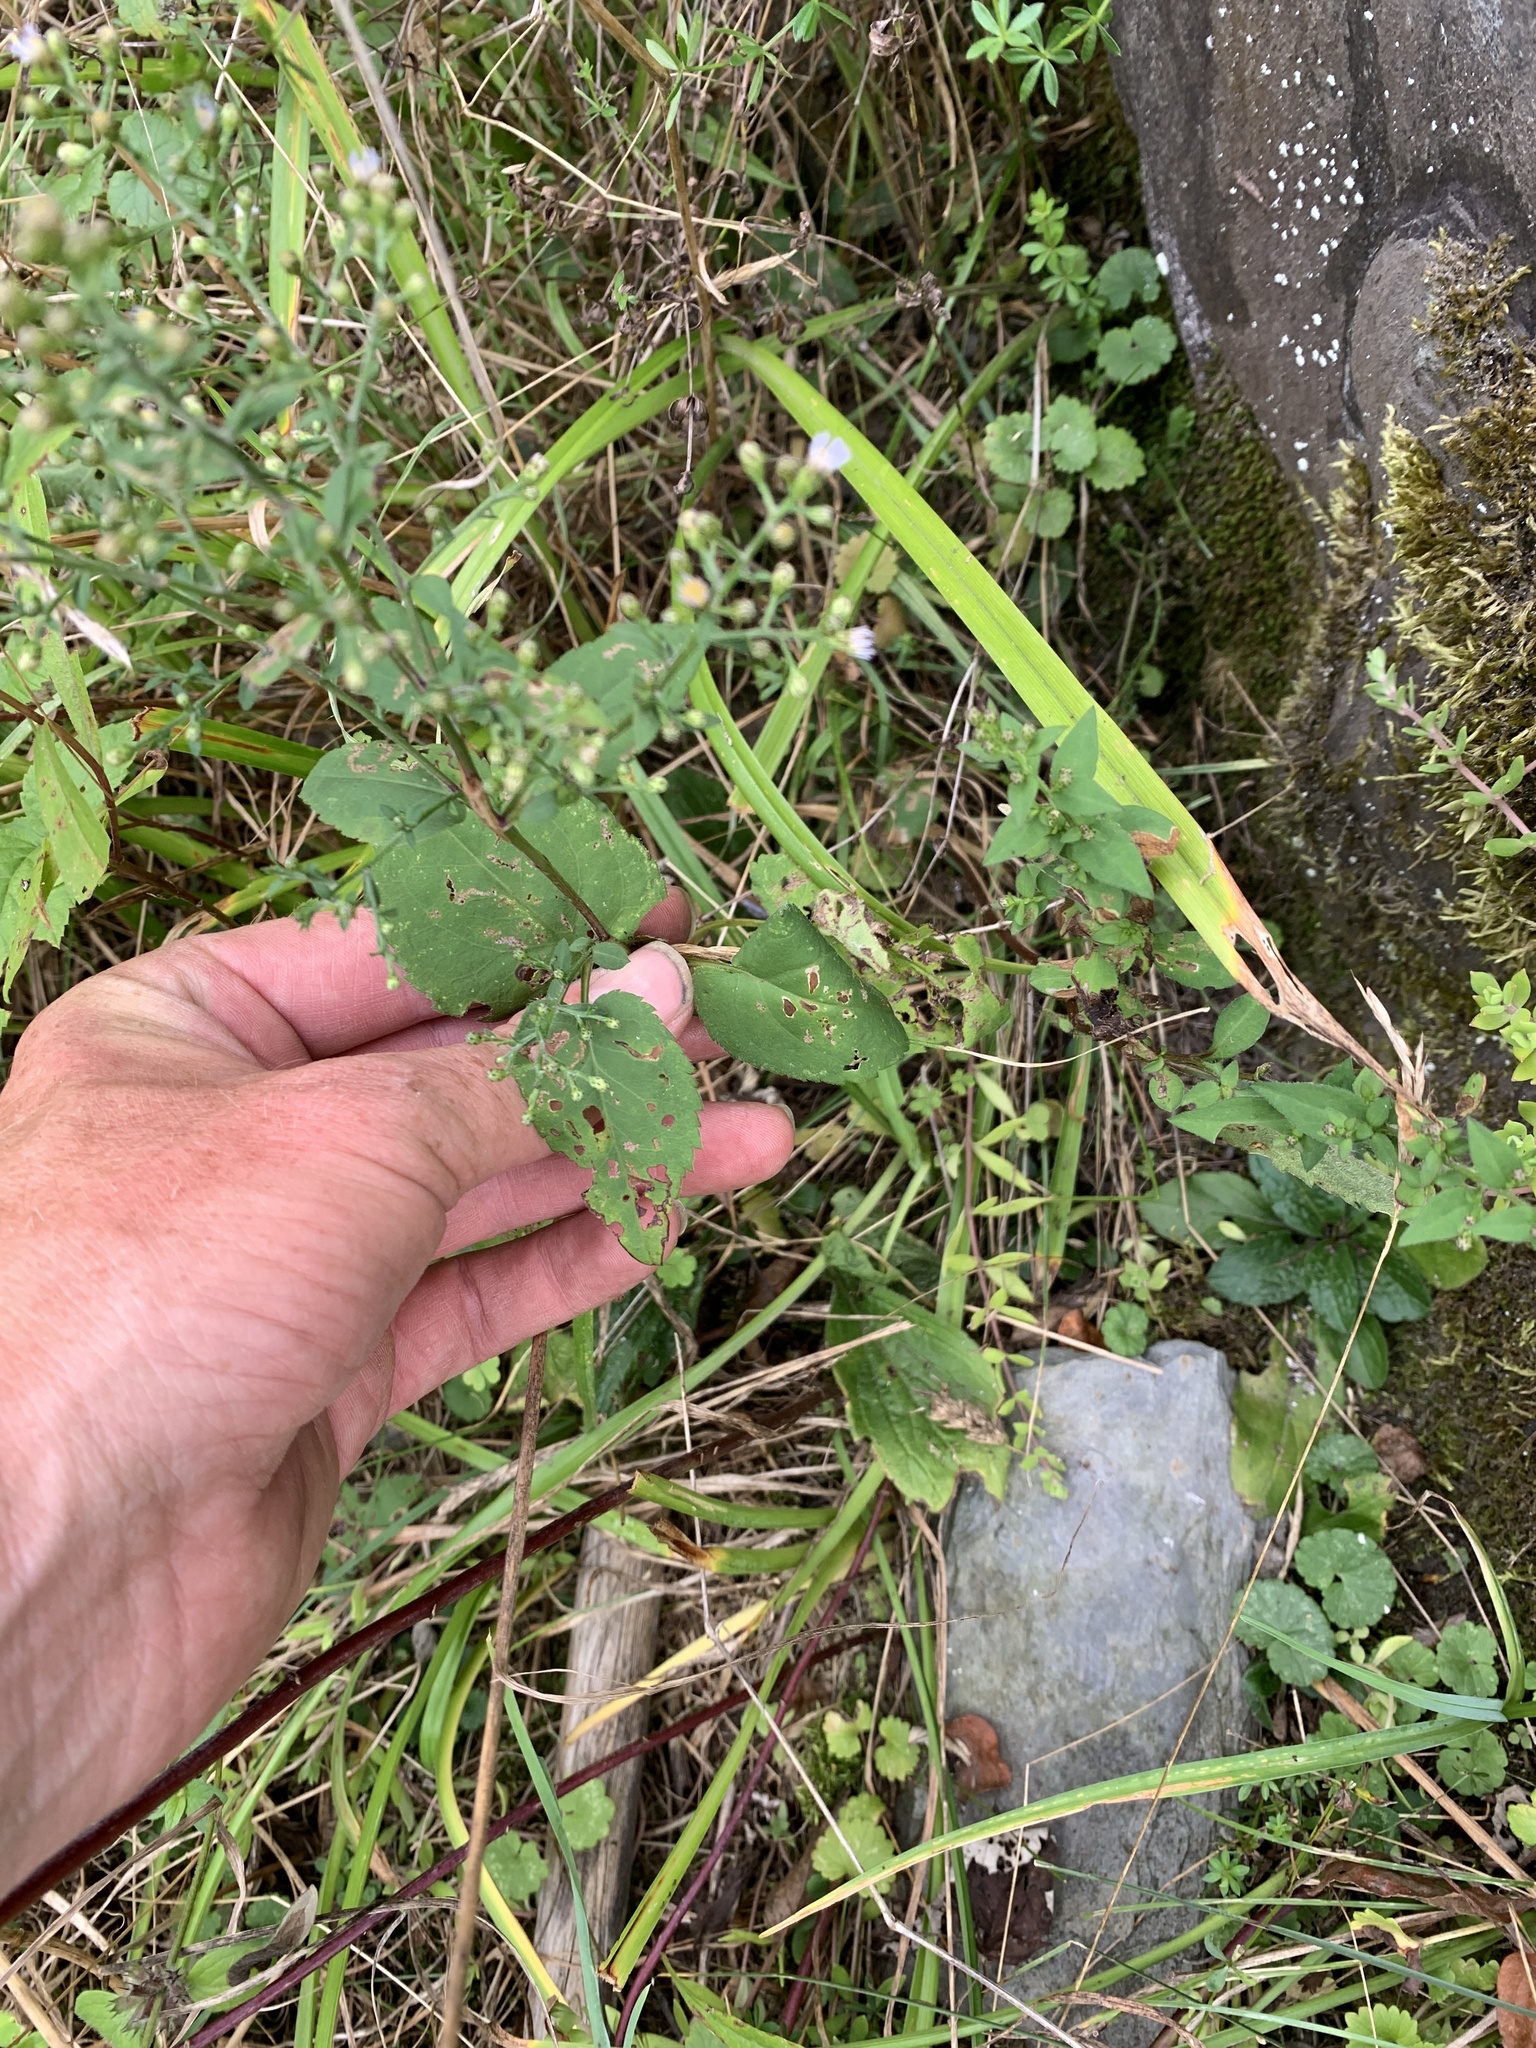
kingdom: Plantae
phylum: Tracheophyta
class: Magnoliopsida
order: Asterales
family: Asteraceae
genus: Symphyotrichum
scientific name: Symphyotrichum cordifolium
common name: Beeweed
